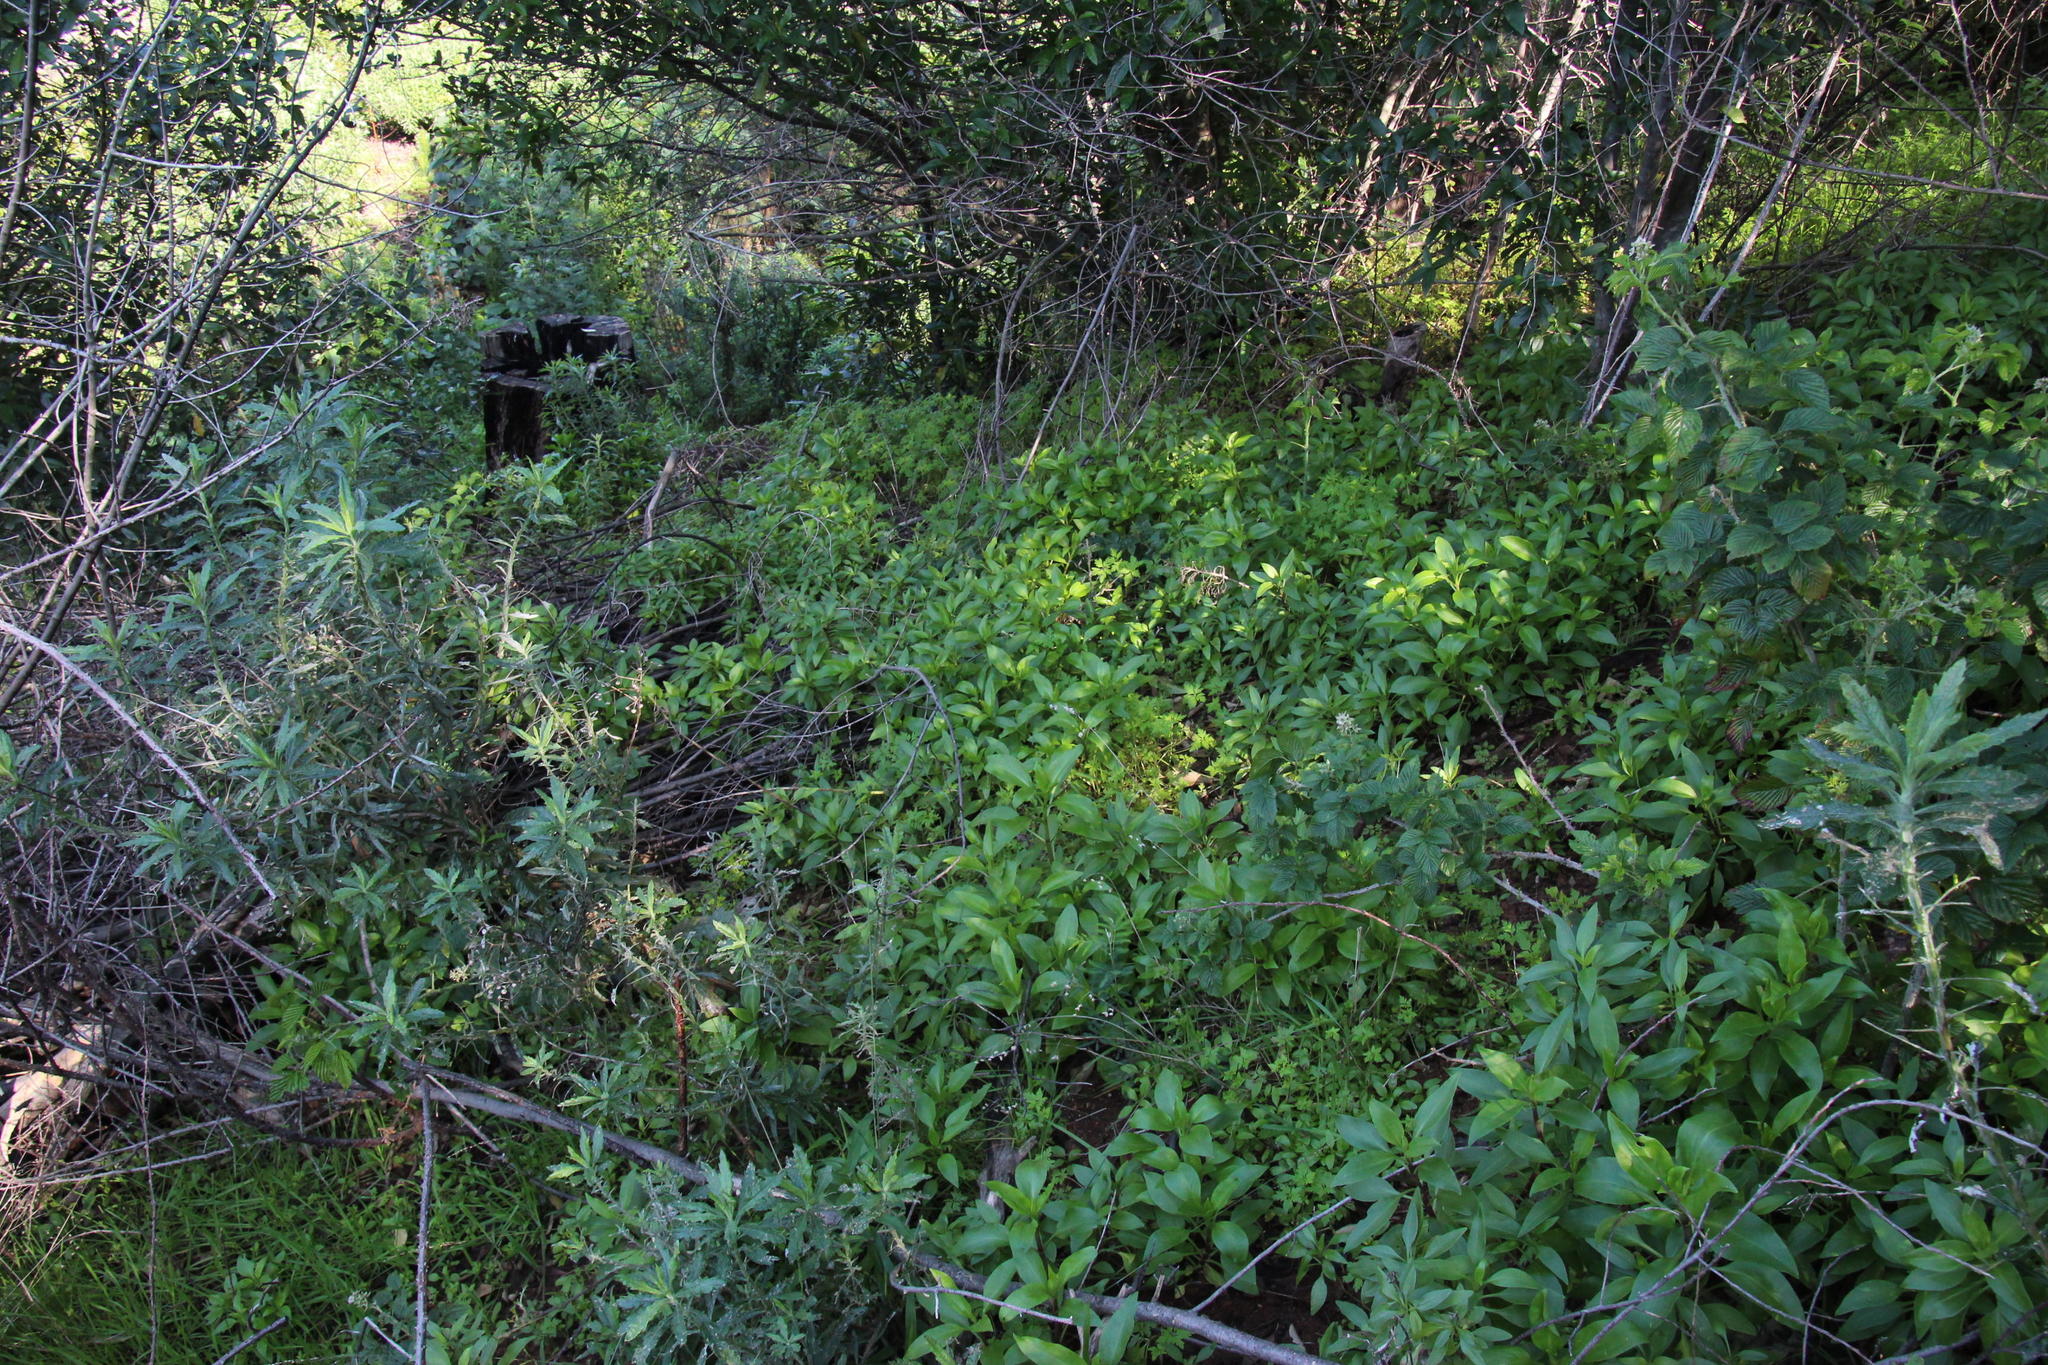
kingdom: Plantae
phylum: Tracheophyta
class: Magnoliopsida
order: Dipsacales
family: Caprifoliaceae
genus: Centranthus
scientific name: Centranthus ruber
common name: Red valerian
